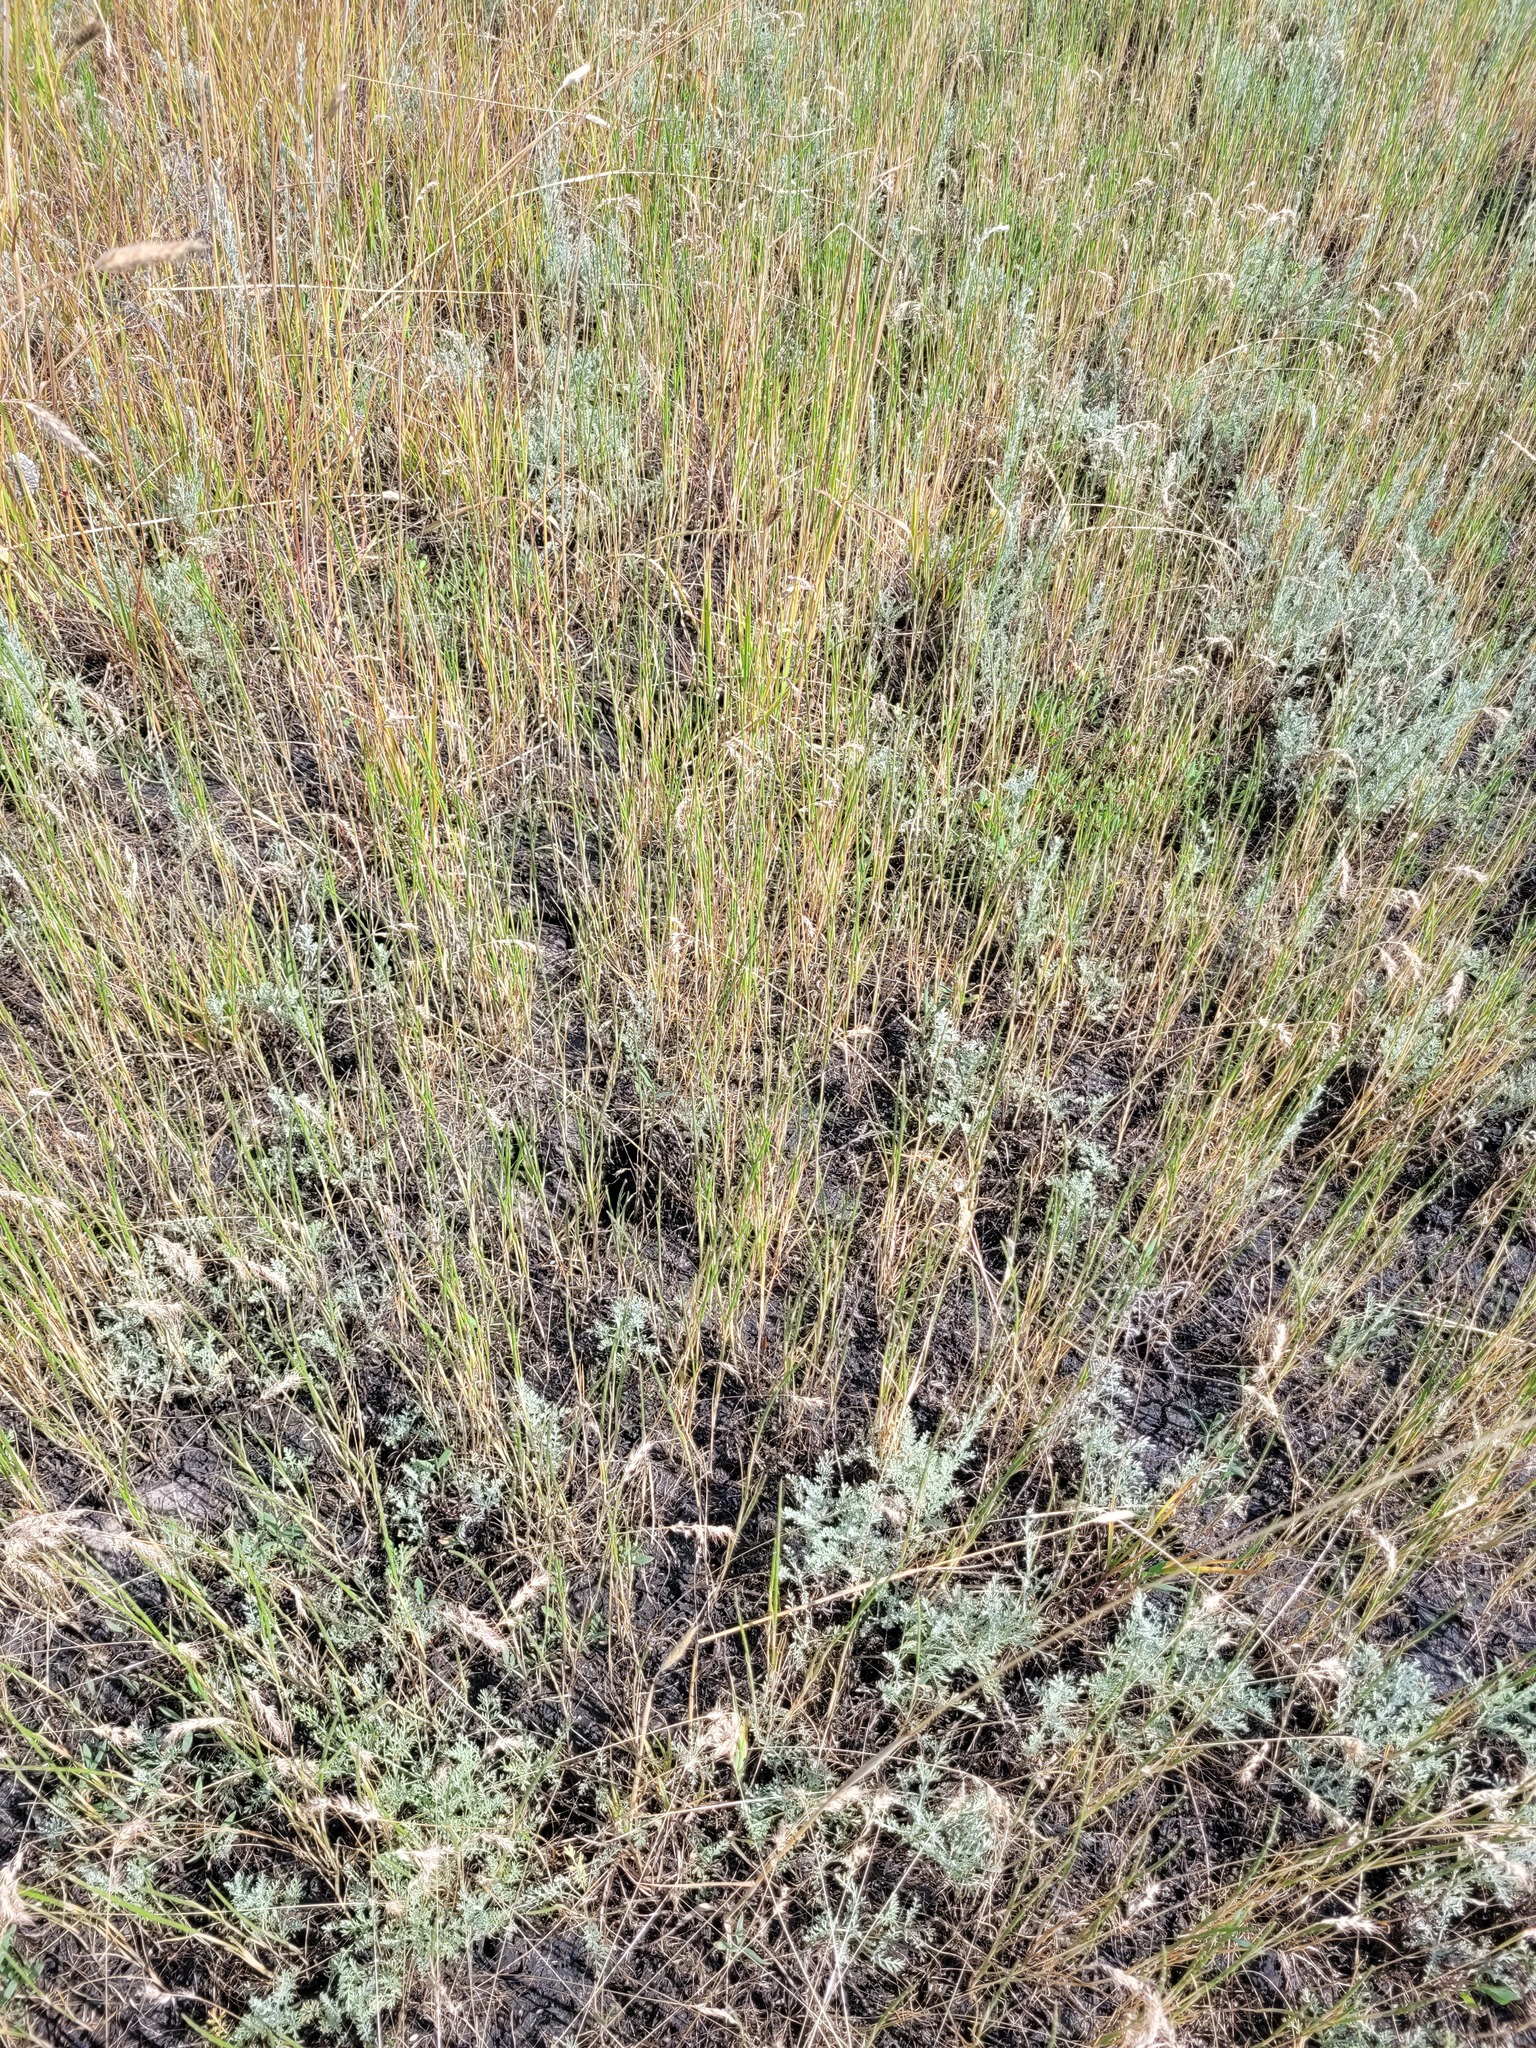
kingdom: Plantae
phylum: Tracheophyta
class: Liliopsida
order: Poales
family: Poaceae
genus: Pholiurus
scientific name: Pholiurus pannonicus
